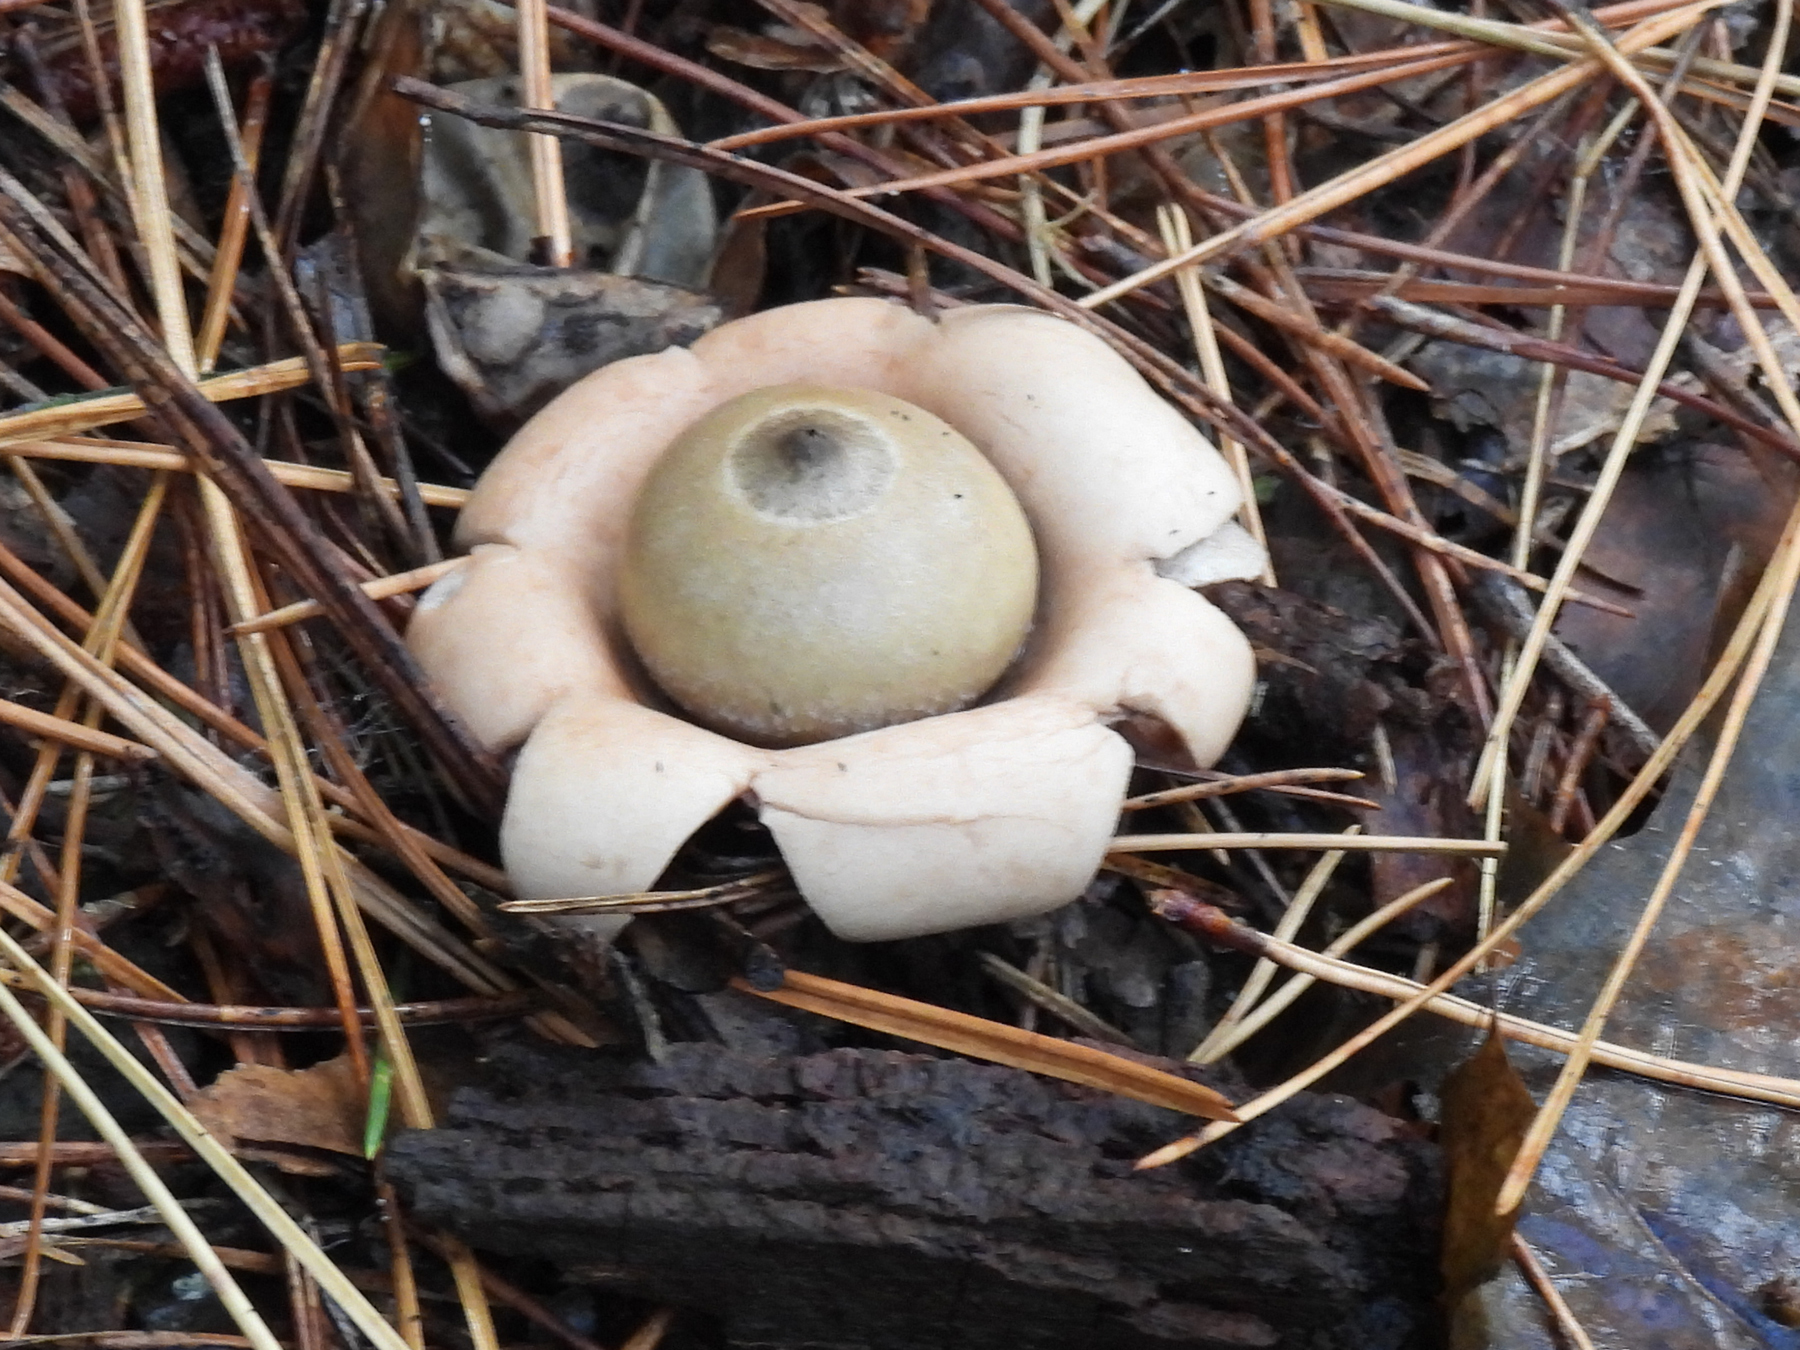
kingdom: Fungi
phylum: Basidiomycota
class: Agaricomycetes
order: Geastrales
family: Geastraceae
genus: Geastrum
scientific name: Geastrum saccatum
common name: Rounded earthstar
